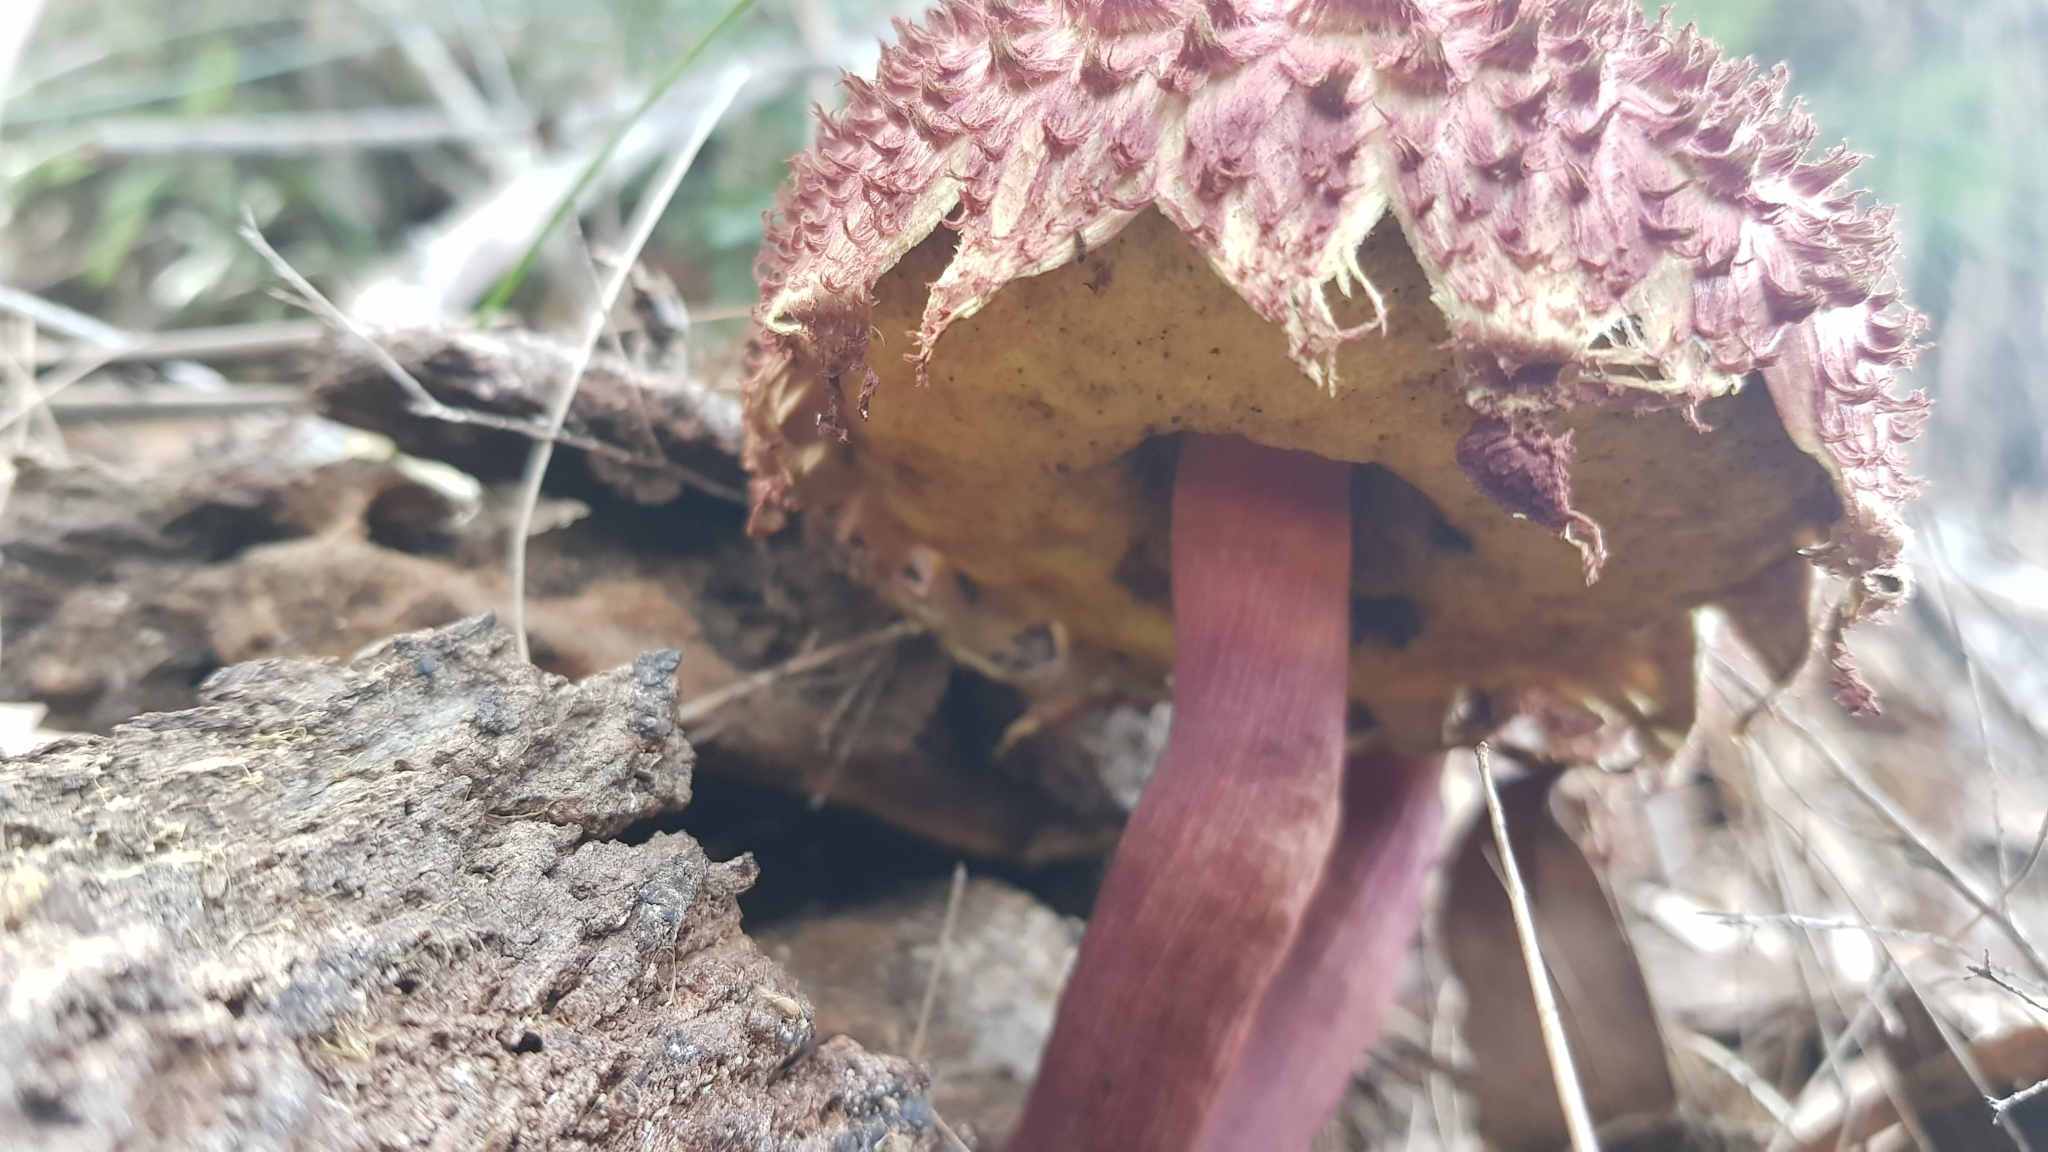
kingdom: Fungi
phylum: Basidiomycota
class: Agaricomycetes
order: Boletales
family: Boletaceae
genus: Boletellus
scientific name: Boletellus emodensis
